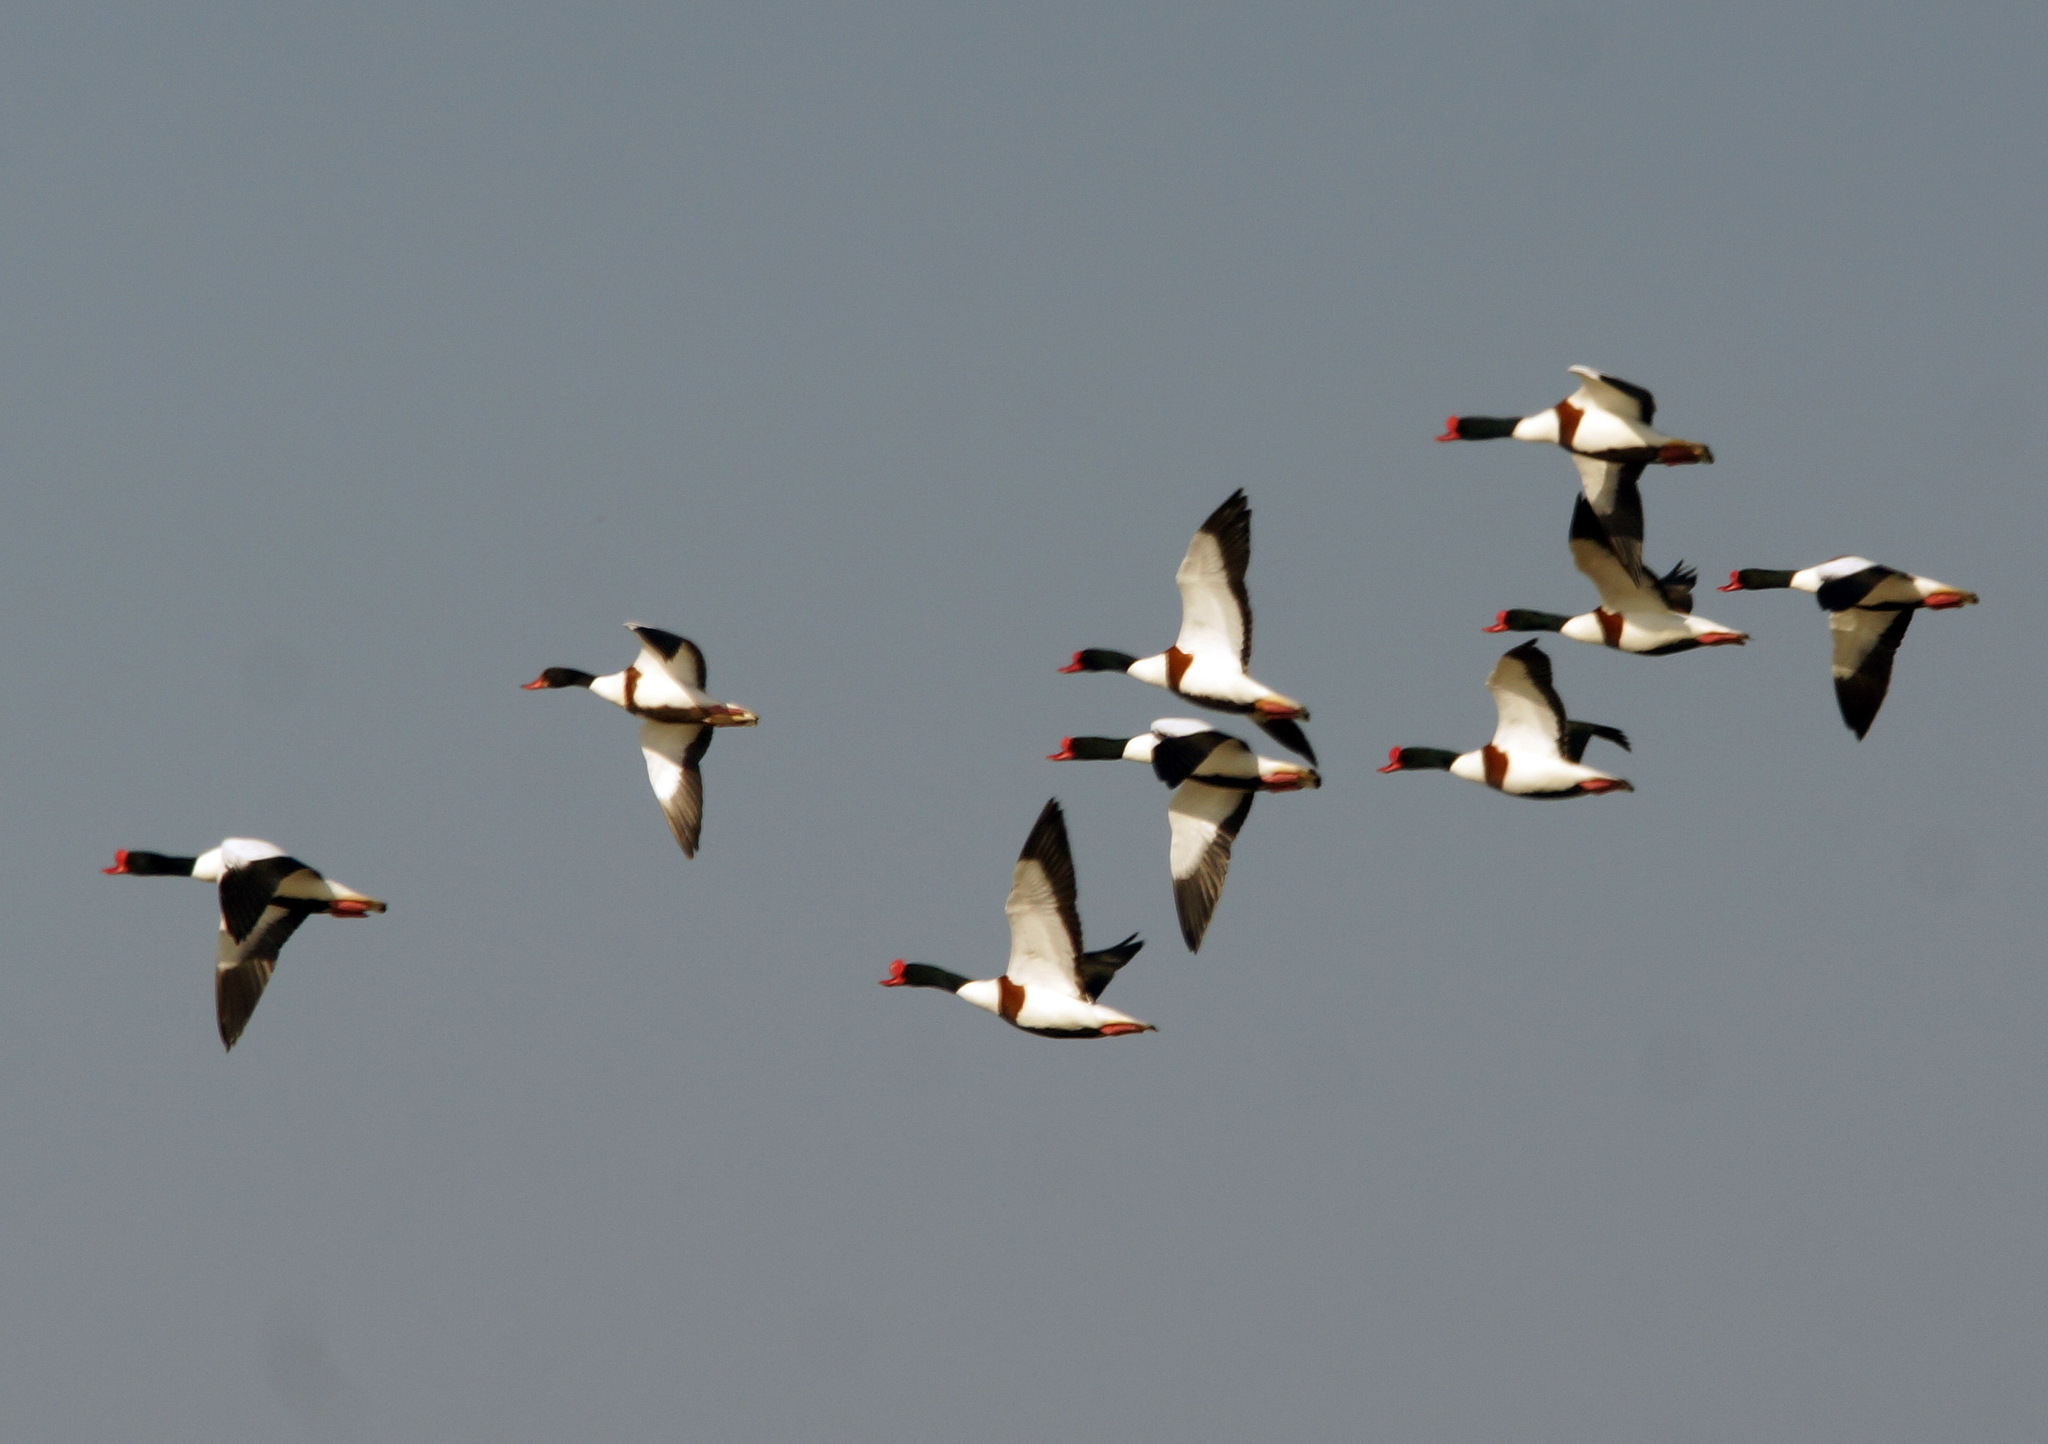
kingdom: Animalia
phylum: Chordata
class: Aves
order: Anseriformes
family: Anatidae
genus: Tadorna
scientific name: Tadorna tadorna
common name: Common shelduck
